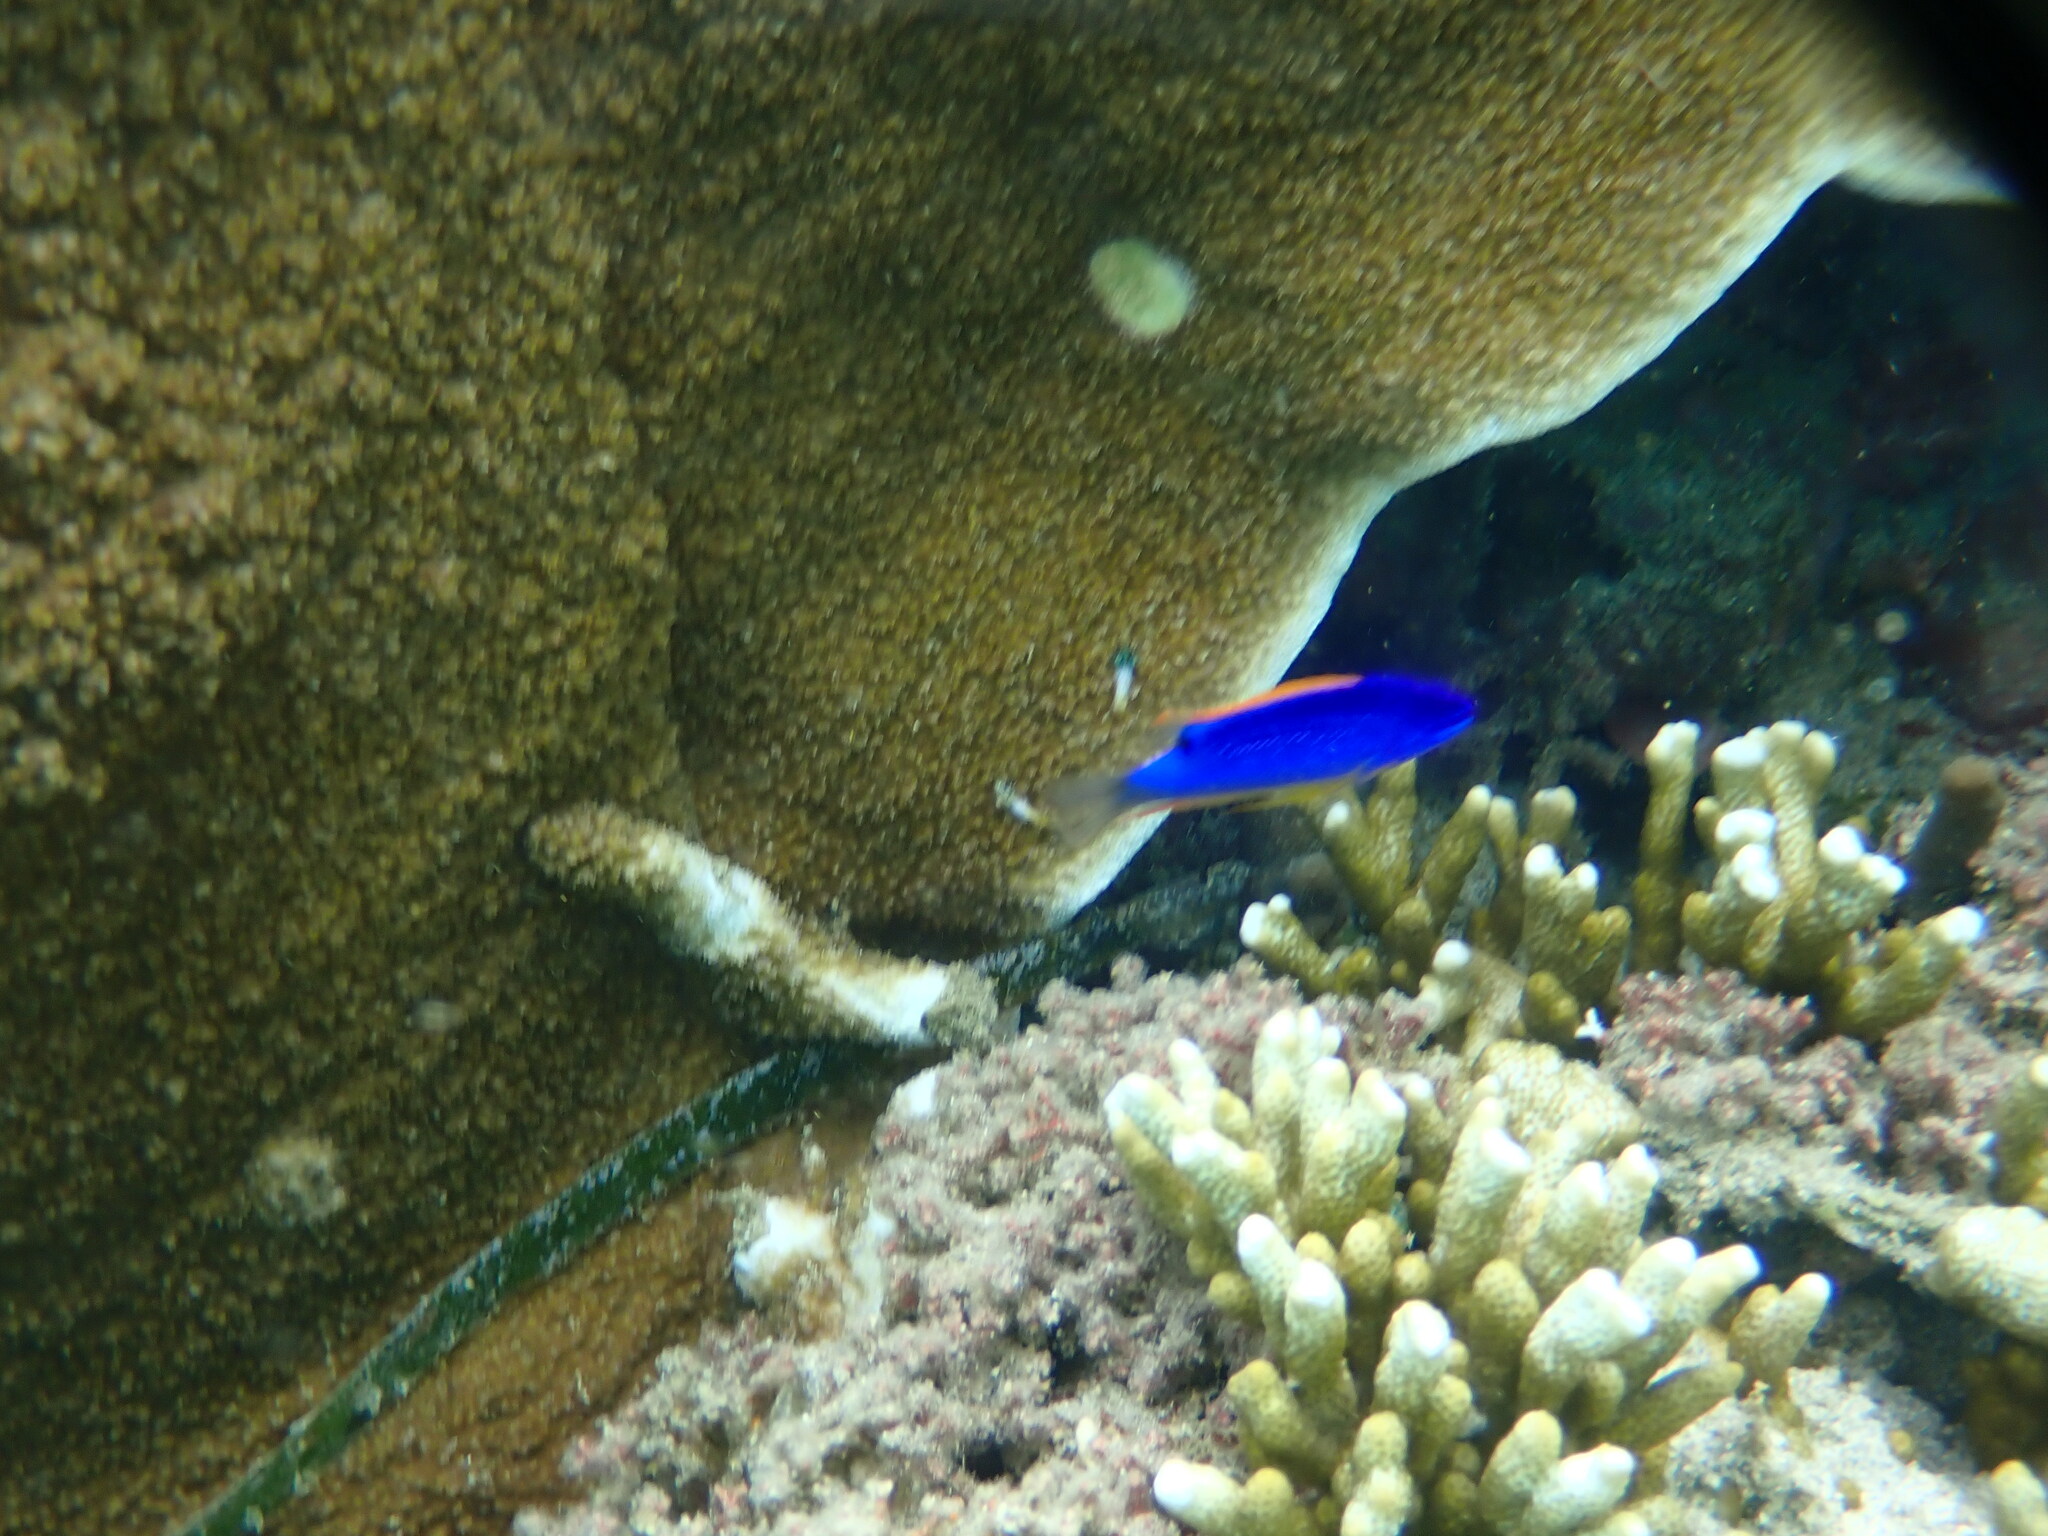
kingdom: Animalia
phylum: Chordata
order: Perciformes
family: Pomacentridae
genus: Chrysiptera
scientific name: Chrysiptera taupou
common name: Fiji damsel
